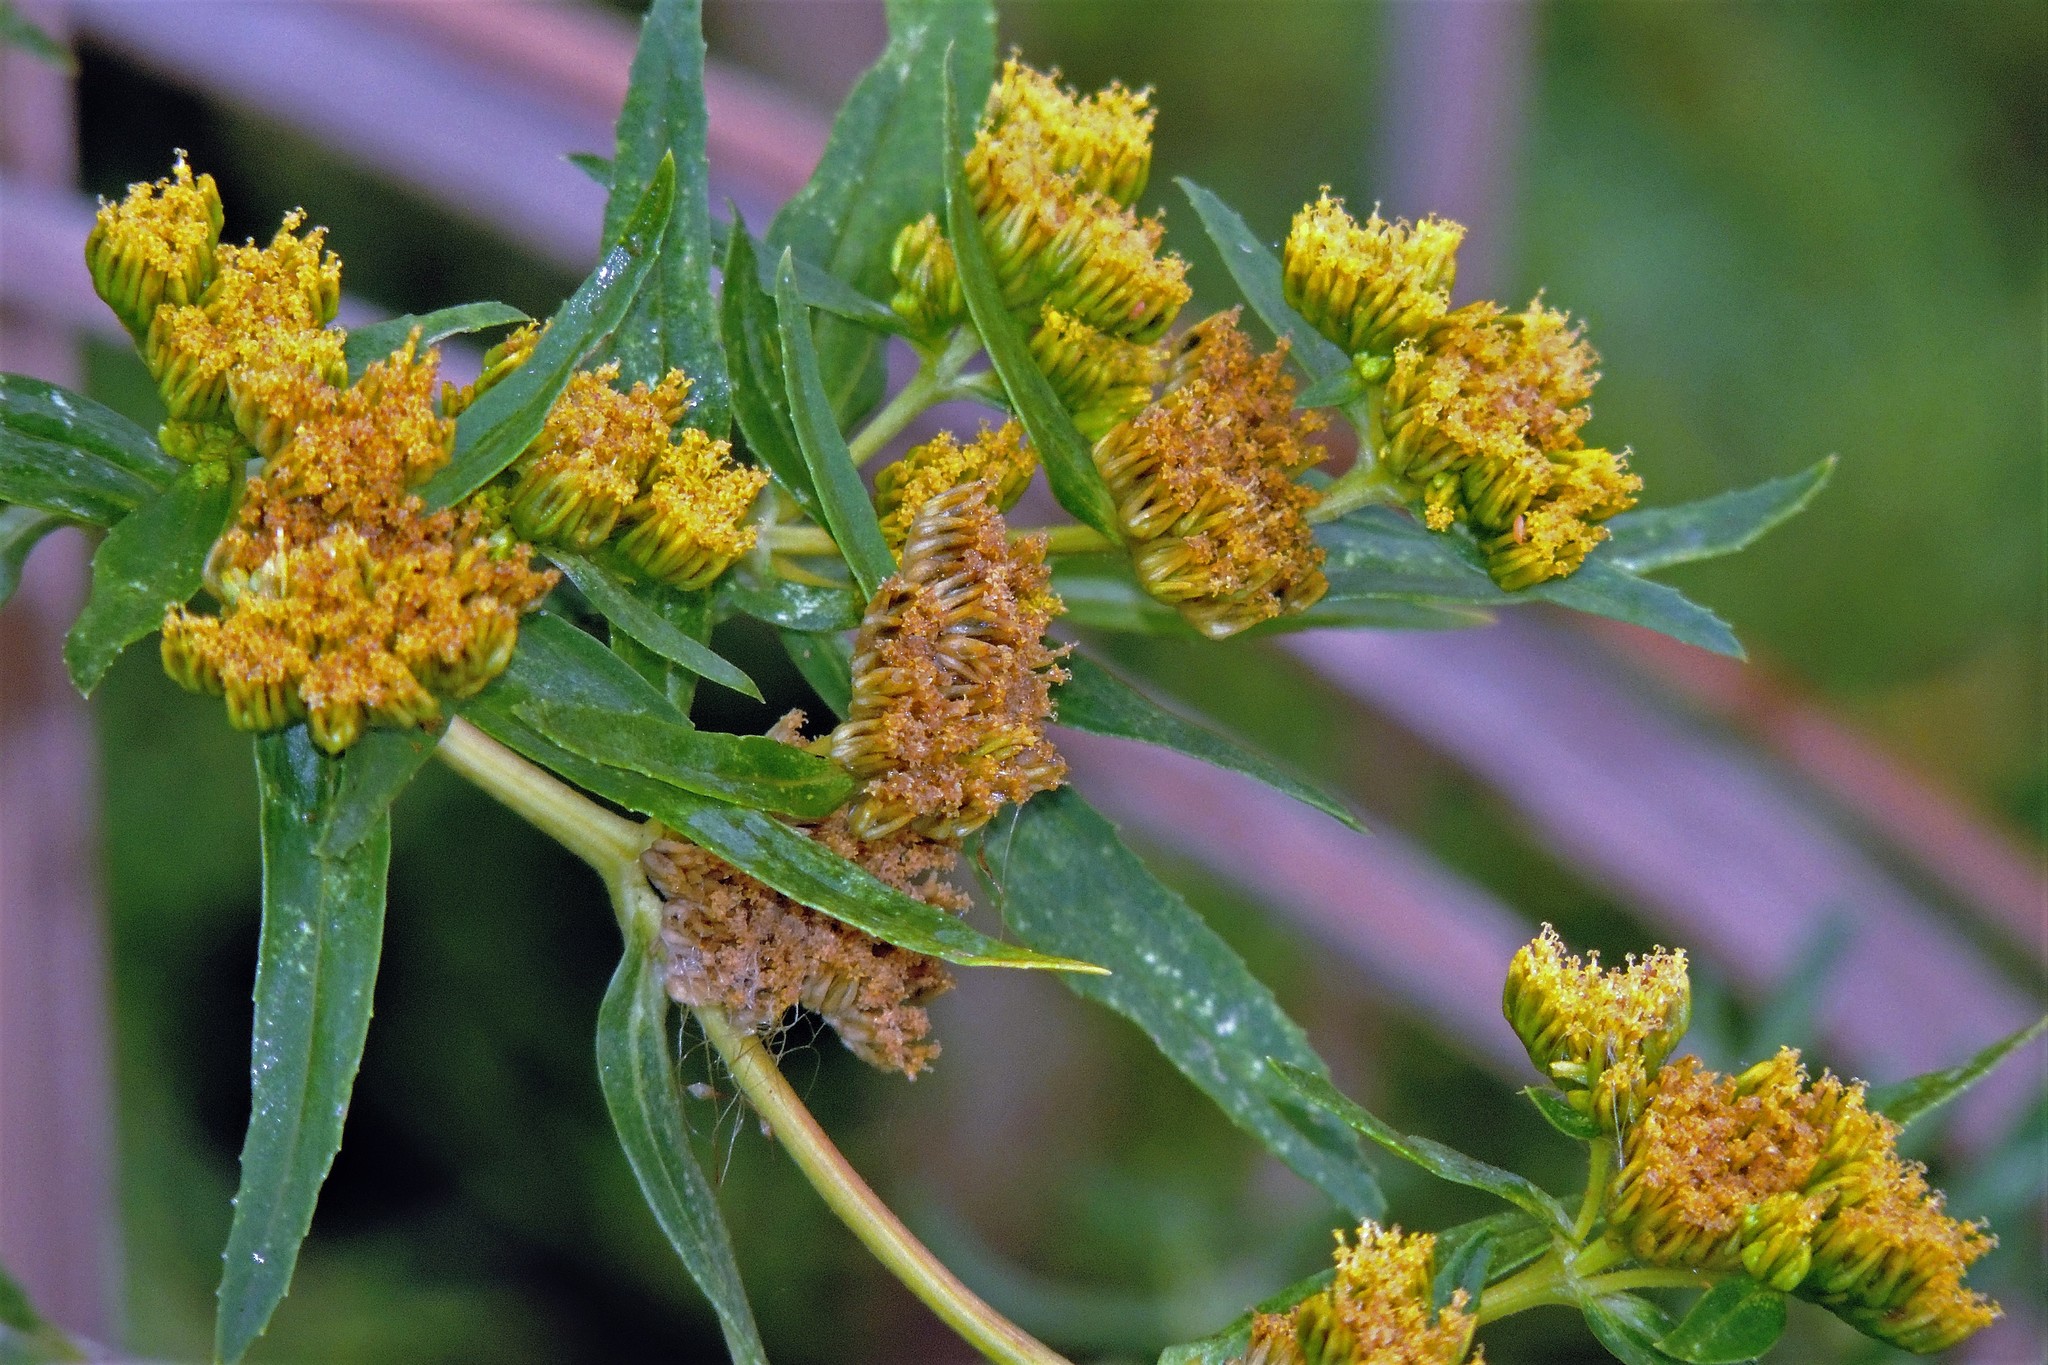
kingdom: Plantae
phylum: Tracheophyta
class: Magnoliopsida
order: Asterales
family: Asteraceae
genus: Flaveria
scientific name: Flaveria bidentis
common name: Coastal plain yellowtops
